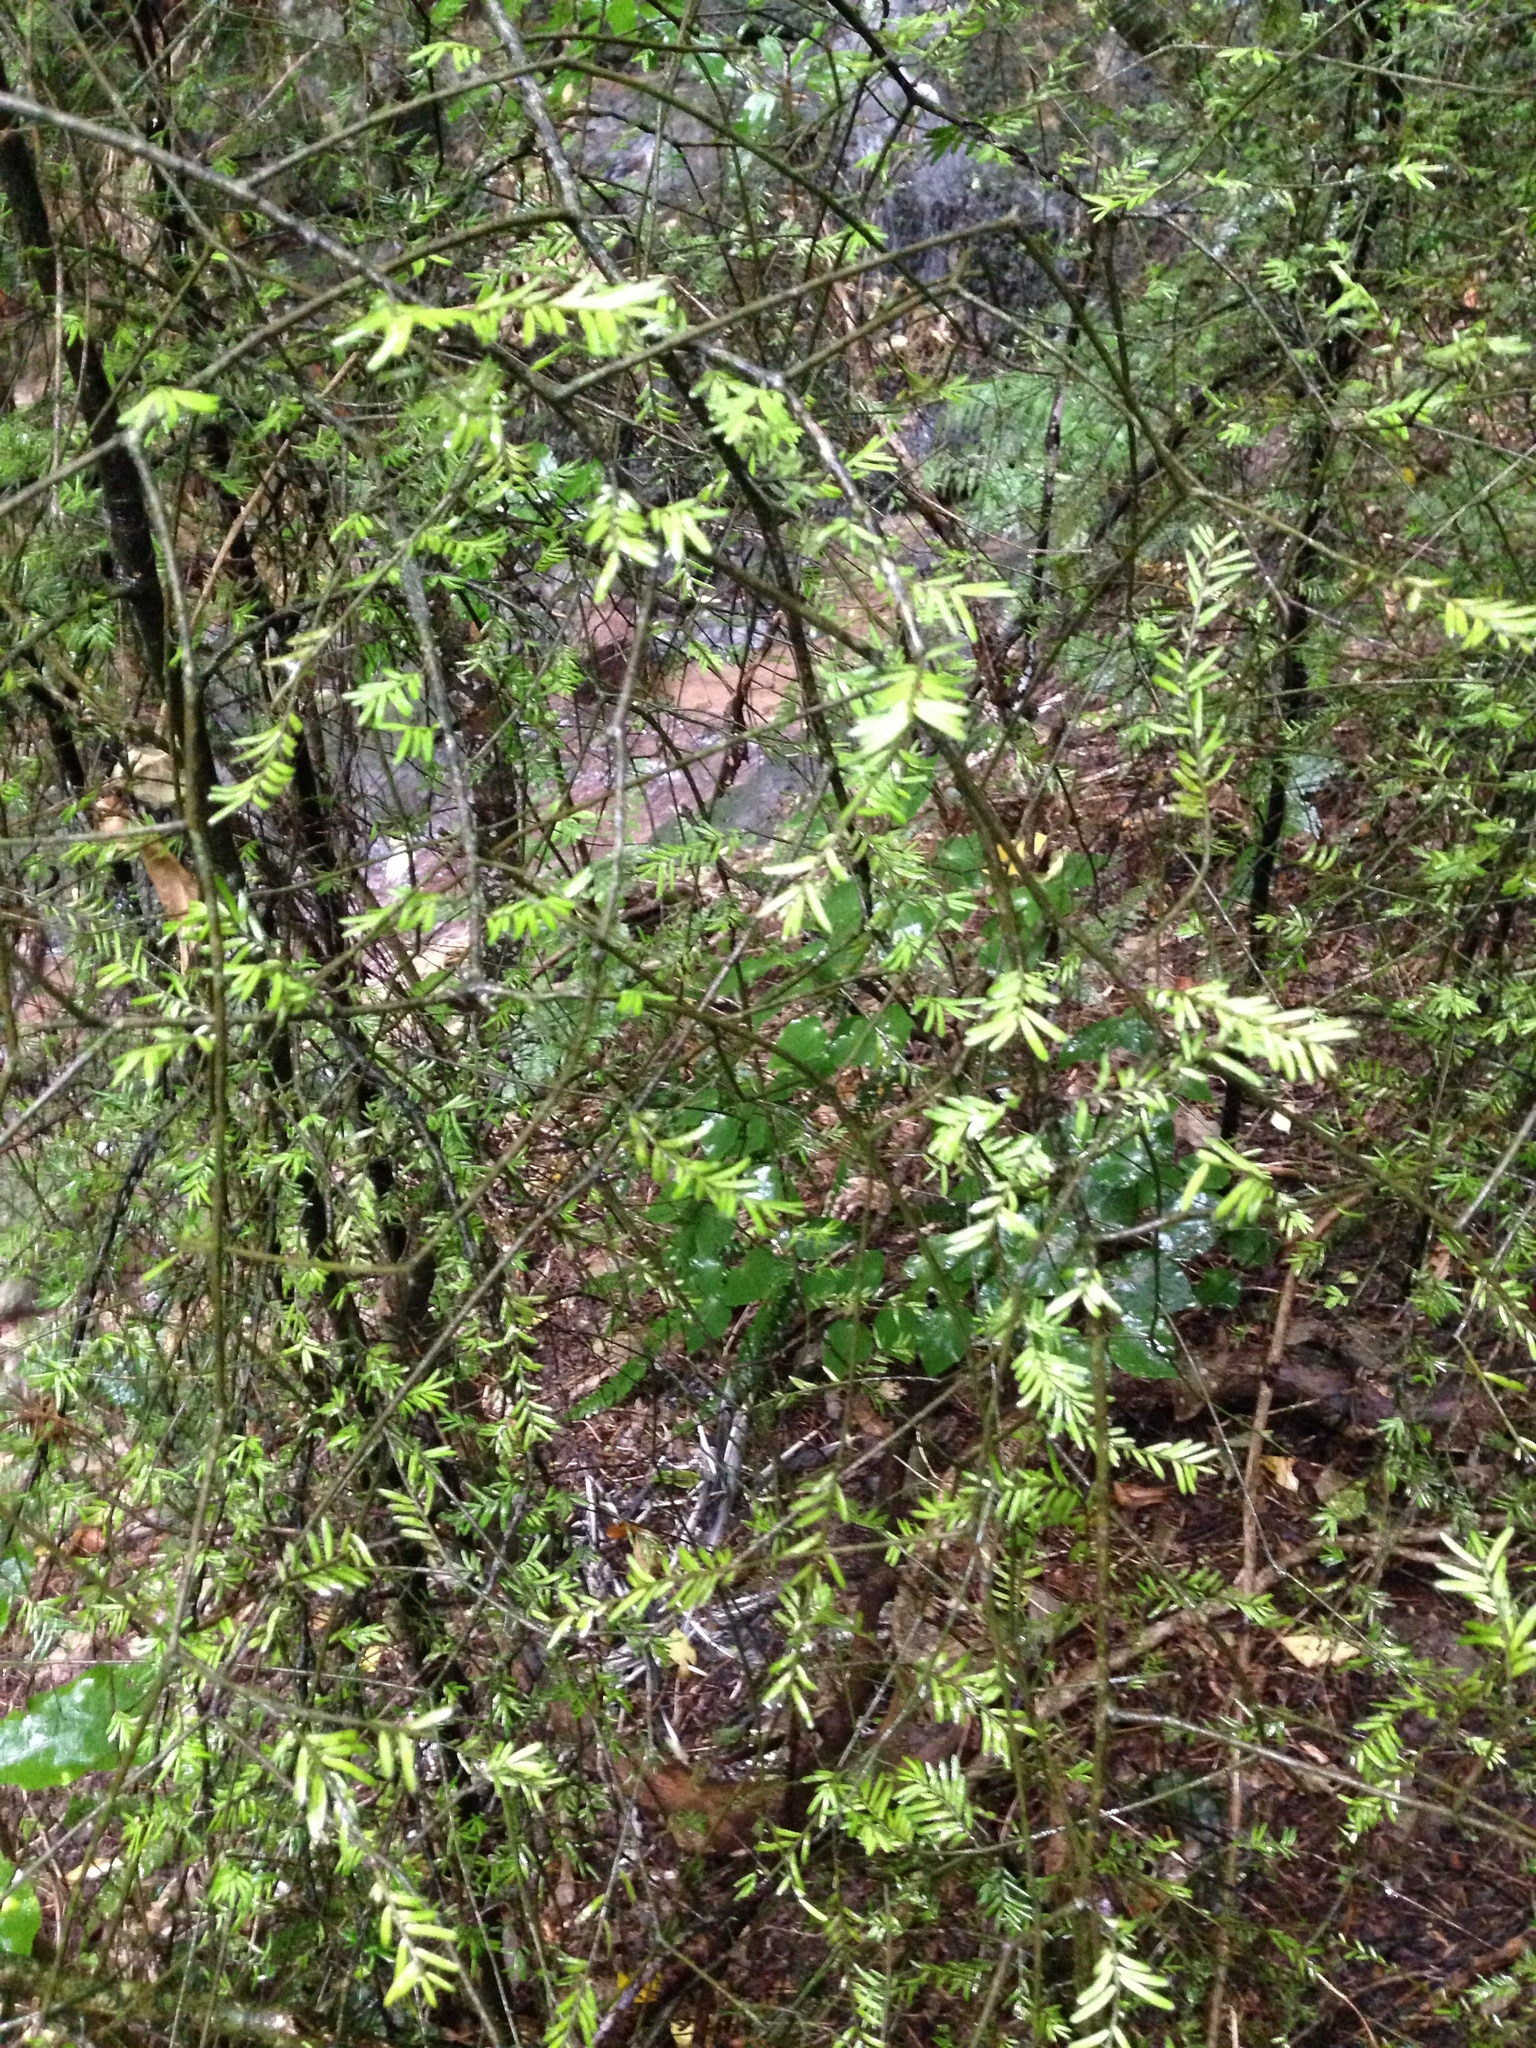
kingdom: Plantae
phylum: Tracheophyta
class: Pinopsida
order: Pinales
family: Podocarpaceae
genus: Prumnopitys
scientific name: Prumnopitys taxifolia
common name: Matai
